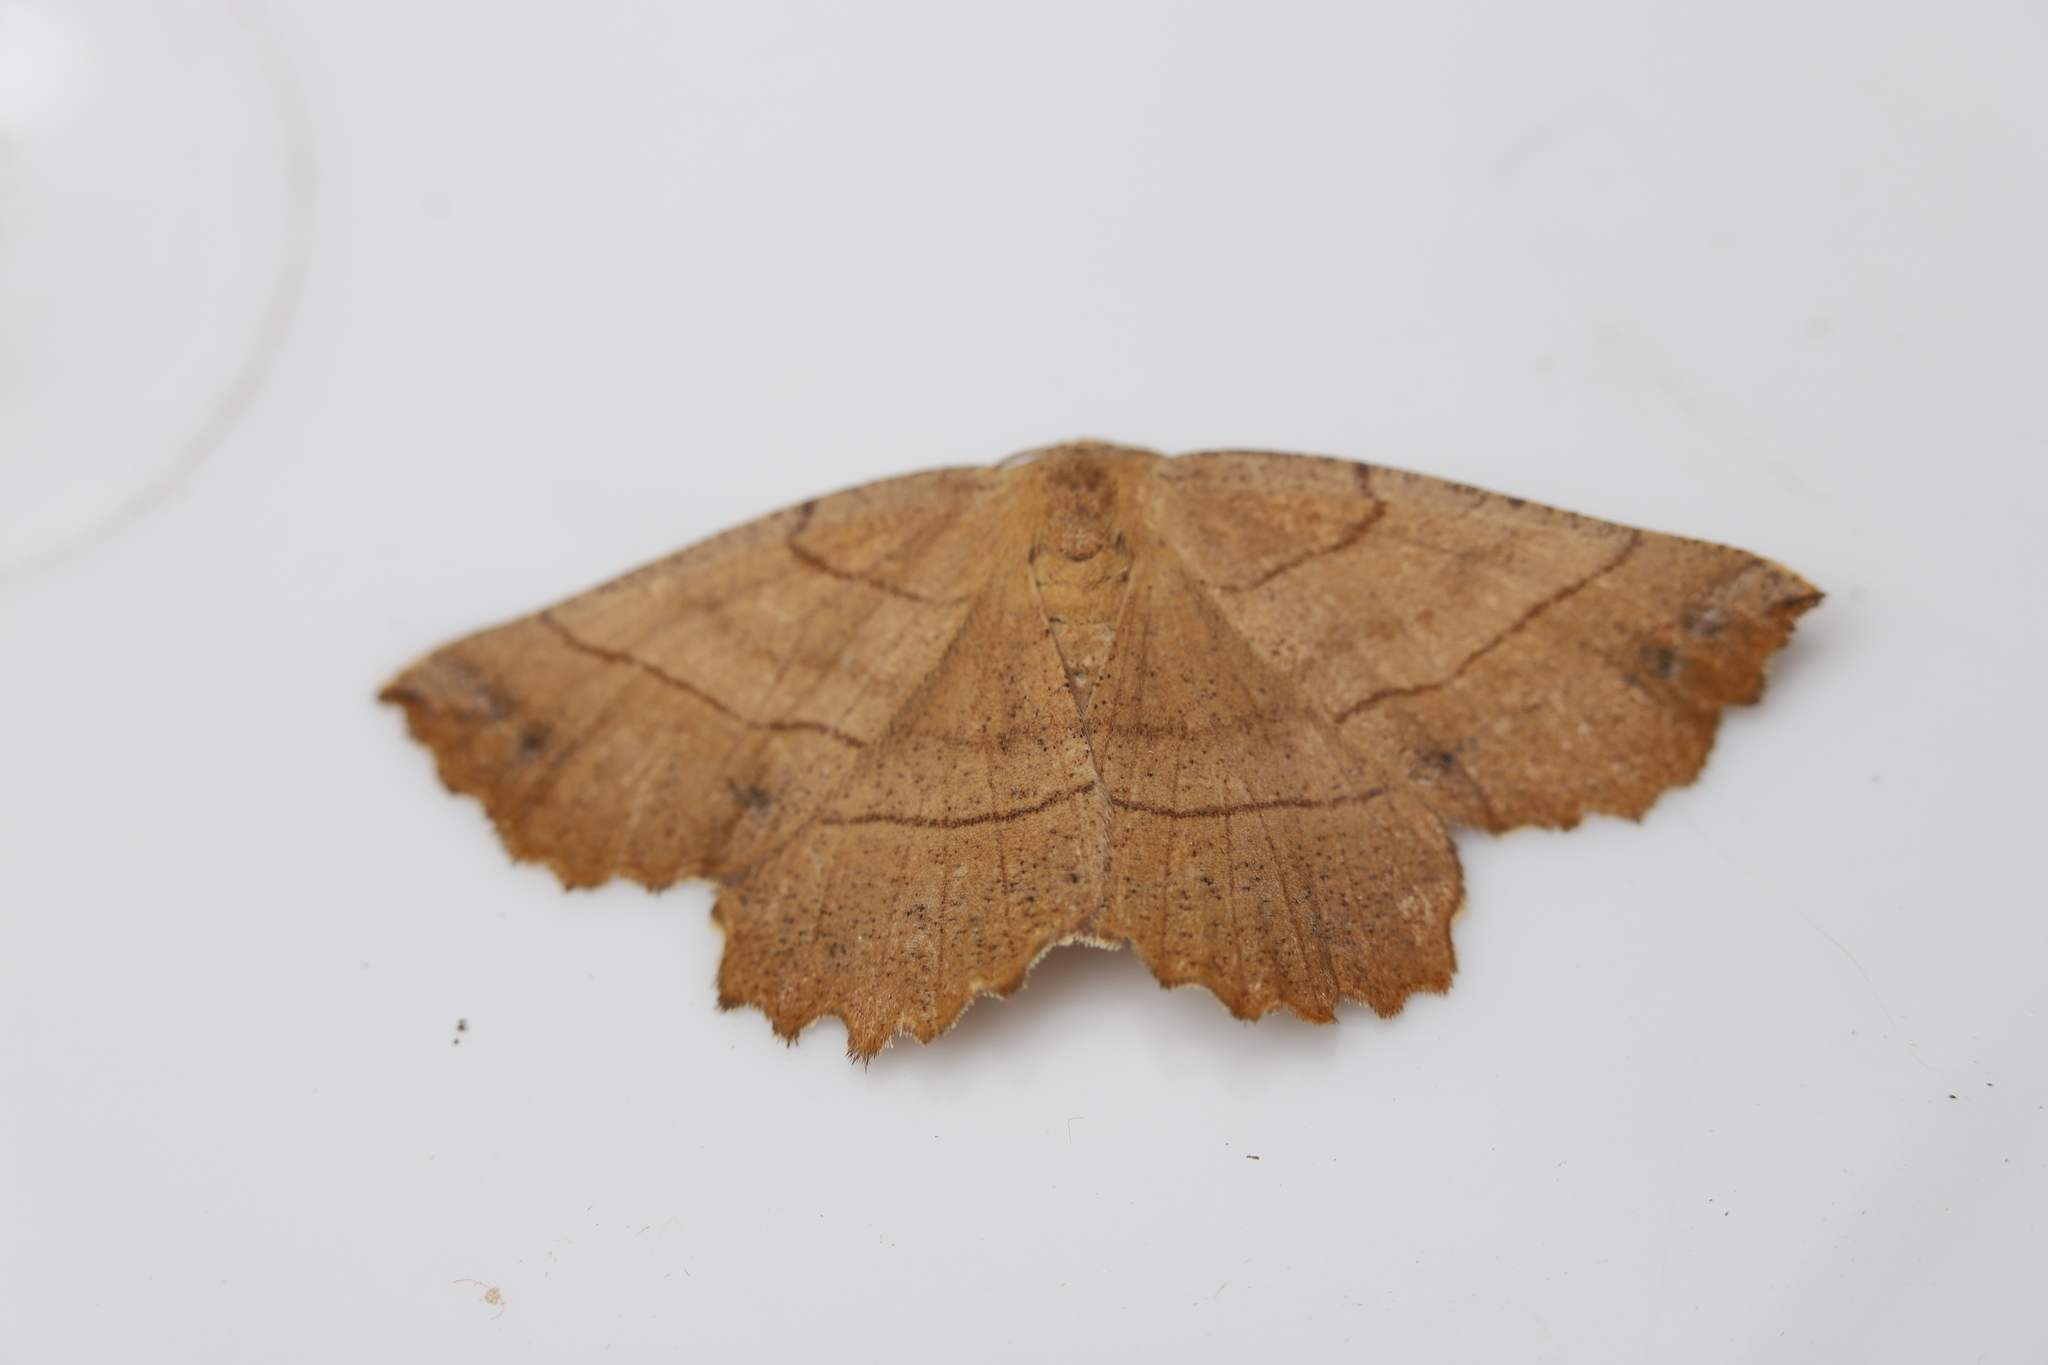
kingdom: Animalia
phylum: Arthropoda
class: Insecta
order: Lepidoptera
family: Geometridae
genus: Euchlaena
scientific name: Euchlaena johnsonaria
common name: Johnson's euchlaena
